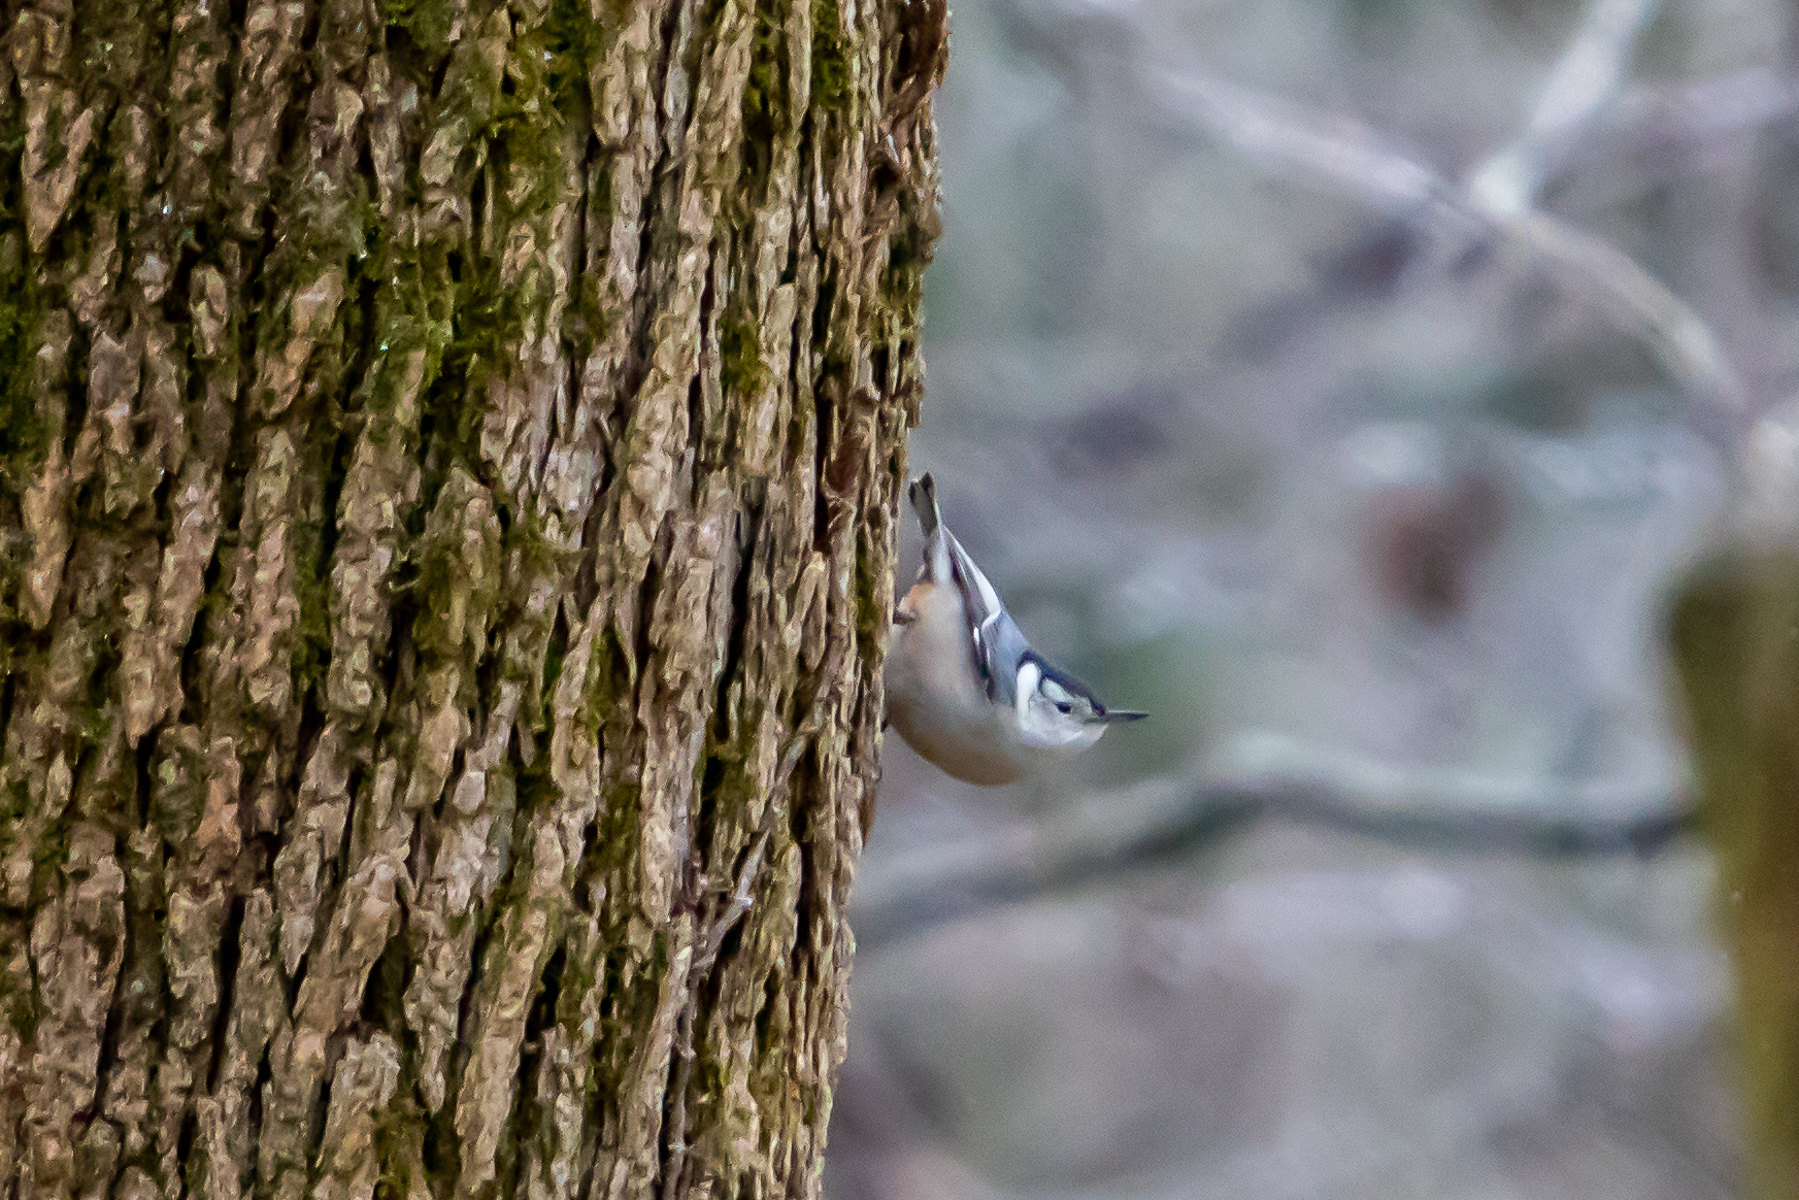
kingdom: Animalia
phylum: Chordata
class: Aves
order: Passeriformes
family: Sittidae
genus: Sitta
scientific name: Sitta carolinensis
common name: White-breasted nuthatch
